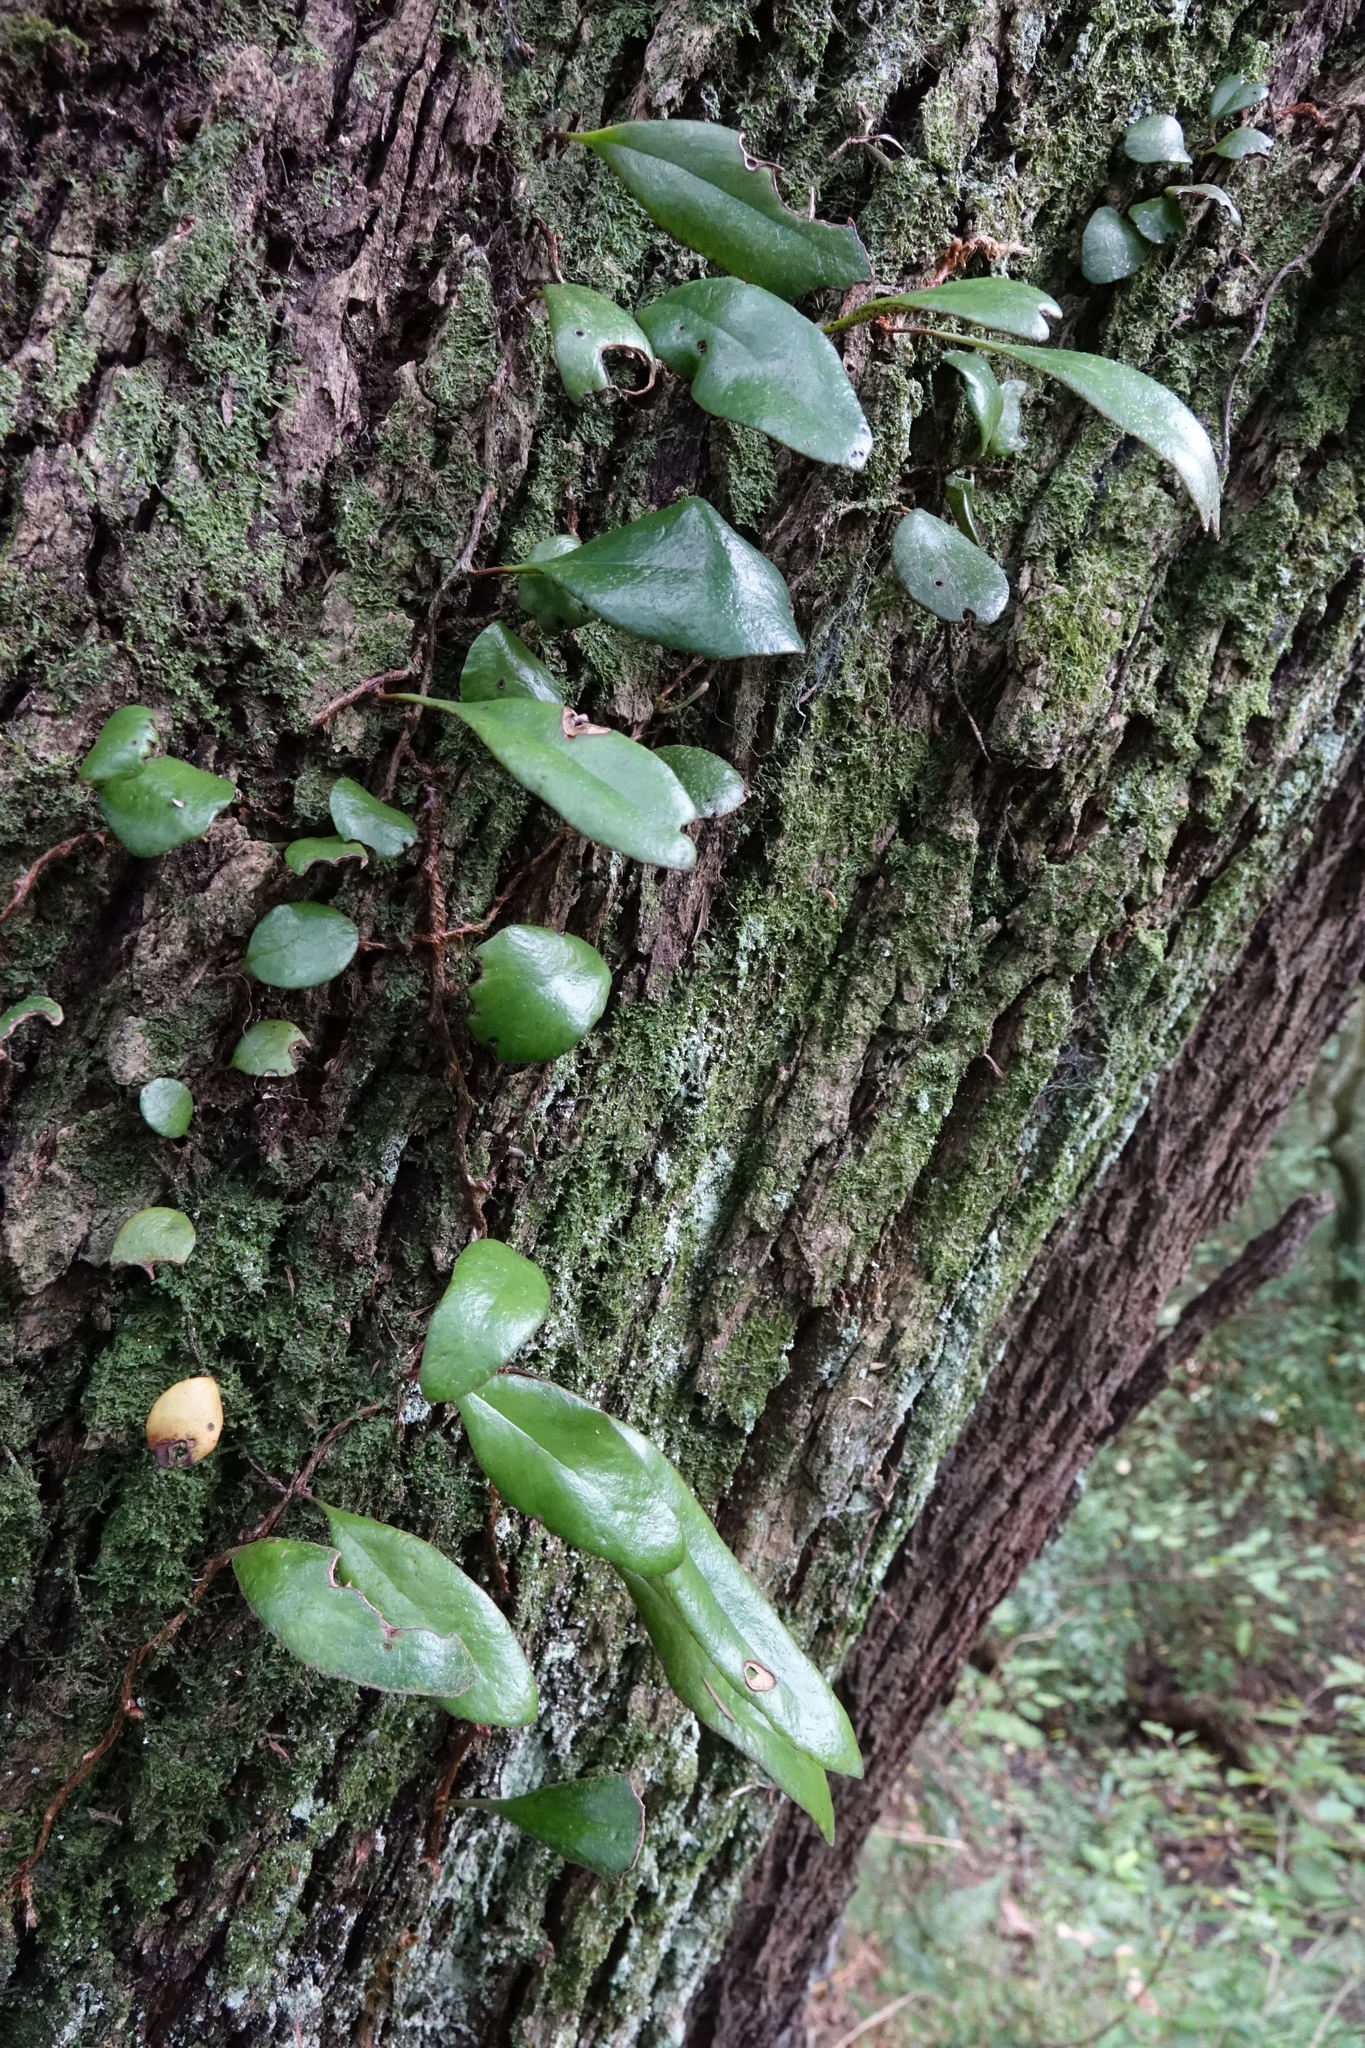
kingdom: Plantae
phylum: Tracheophyta
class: Polypodiopsida
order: Polypodiales
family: Polypodiaceae
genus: Pyrrosia
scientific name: Pyrrosia eleagnifolia
